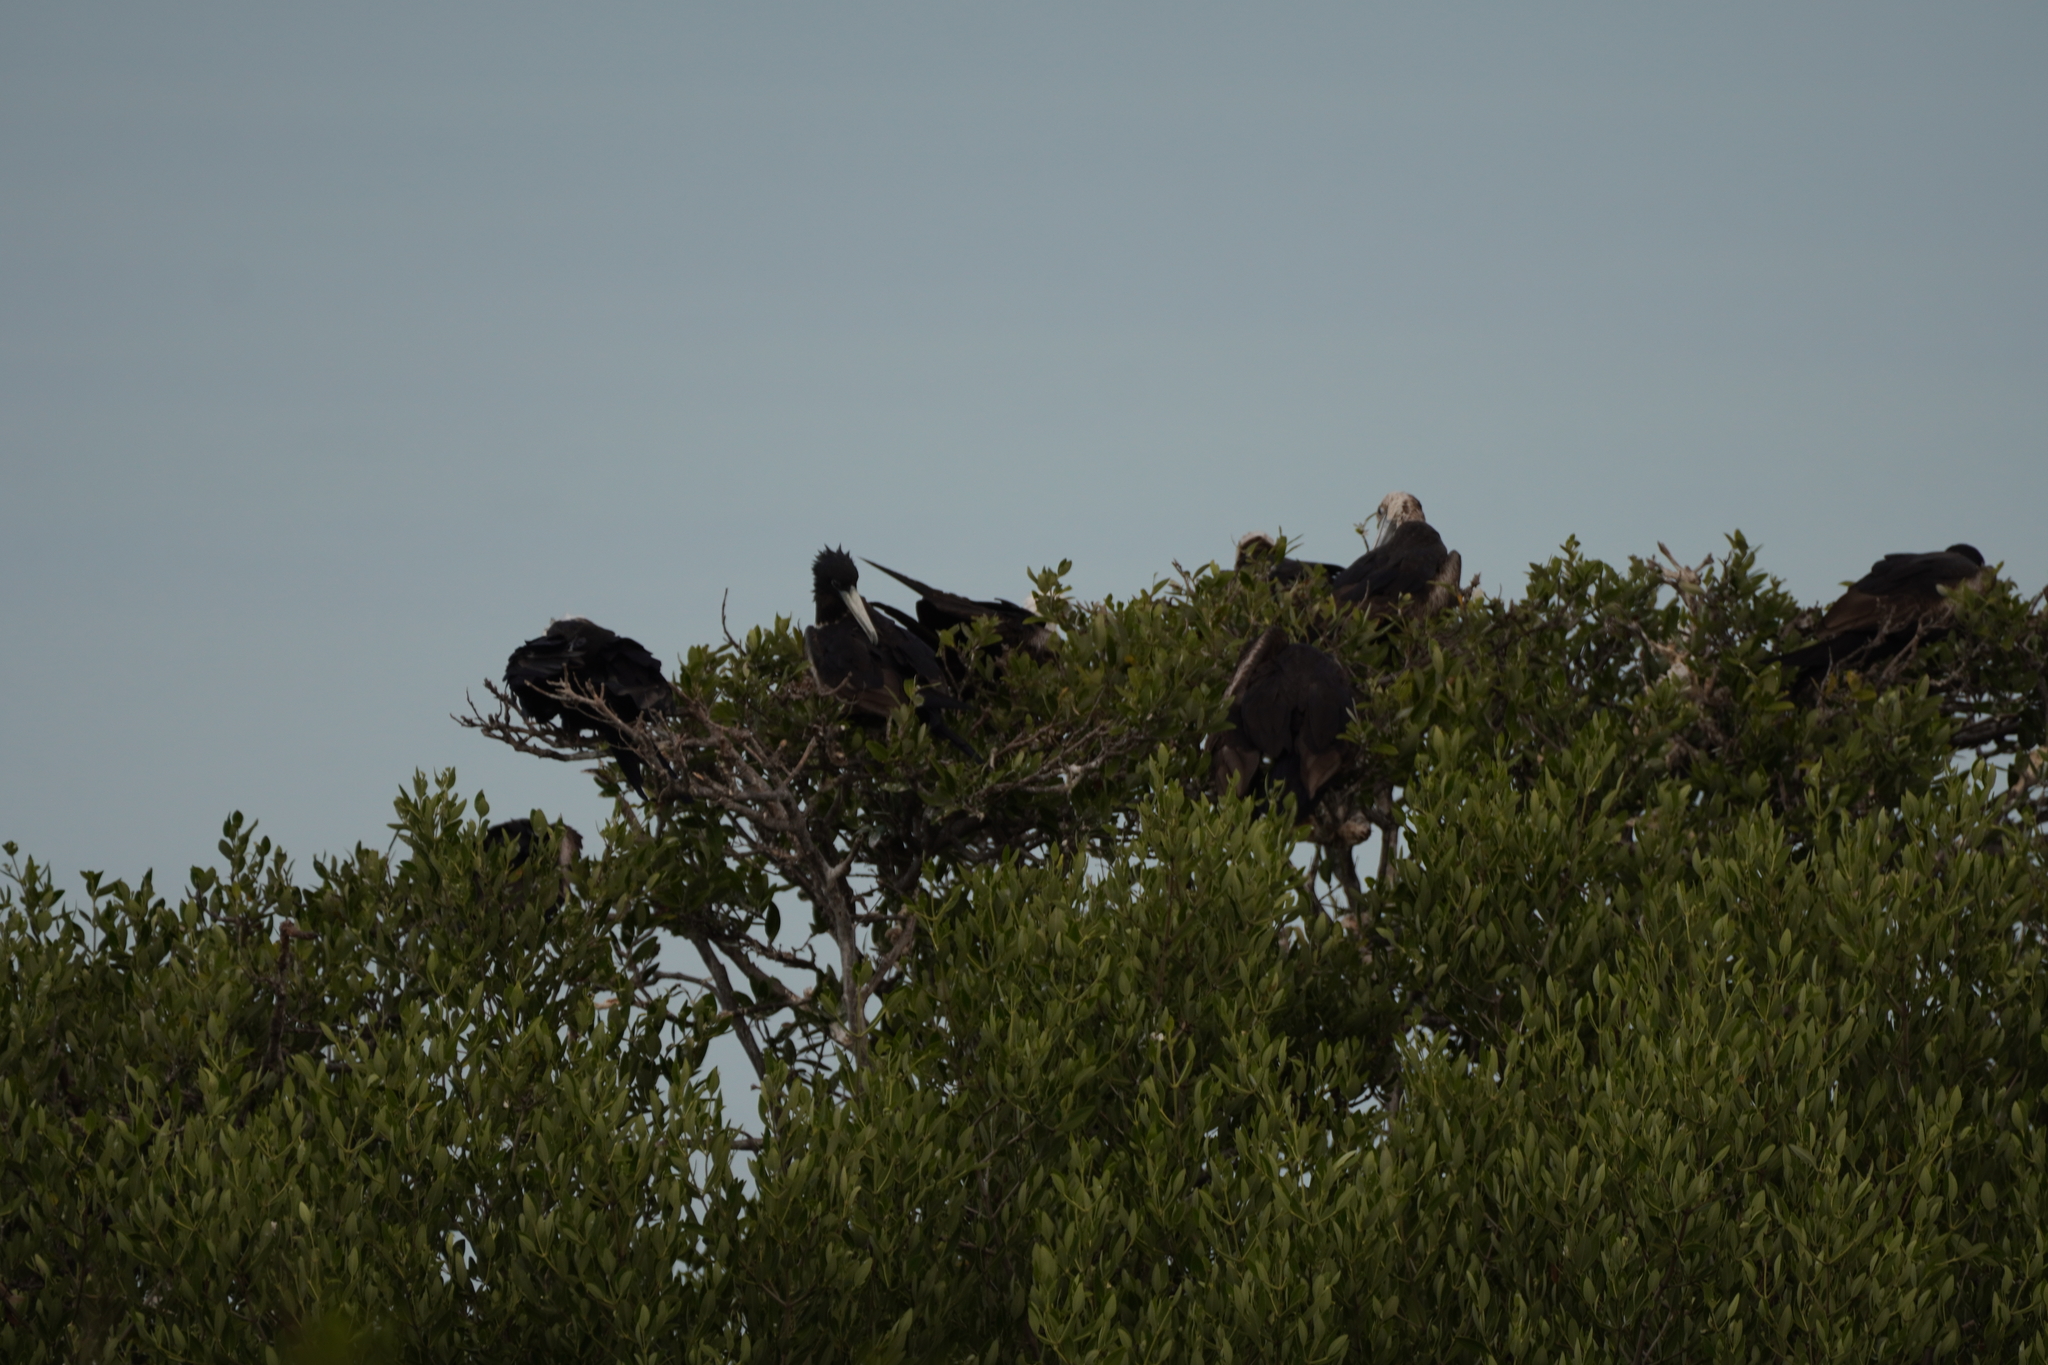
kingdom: Animalia
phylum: Chordata
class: Aves
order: Suliformes
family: Fregatidae
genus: Fregata
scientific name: Fregata magnificens
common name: Magnificent frigatebird
